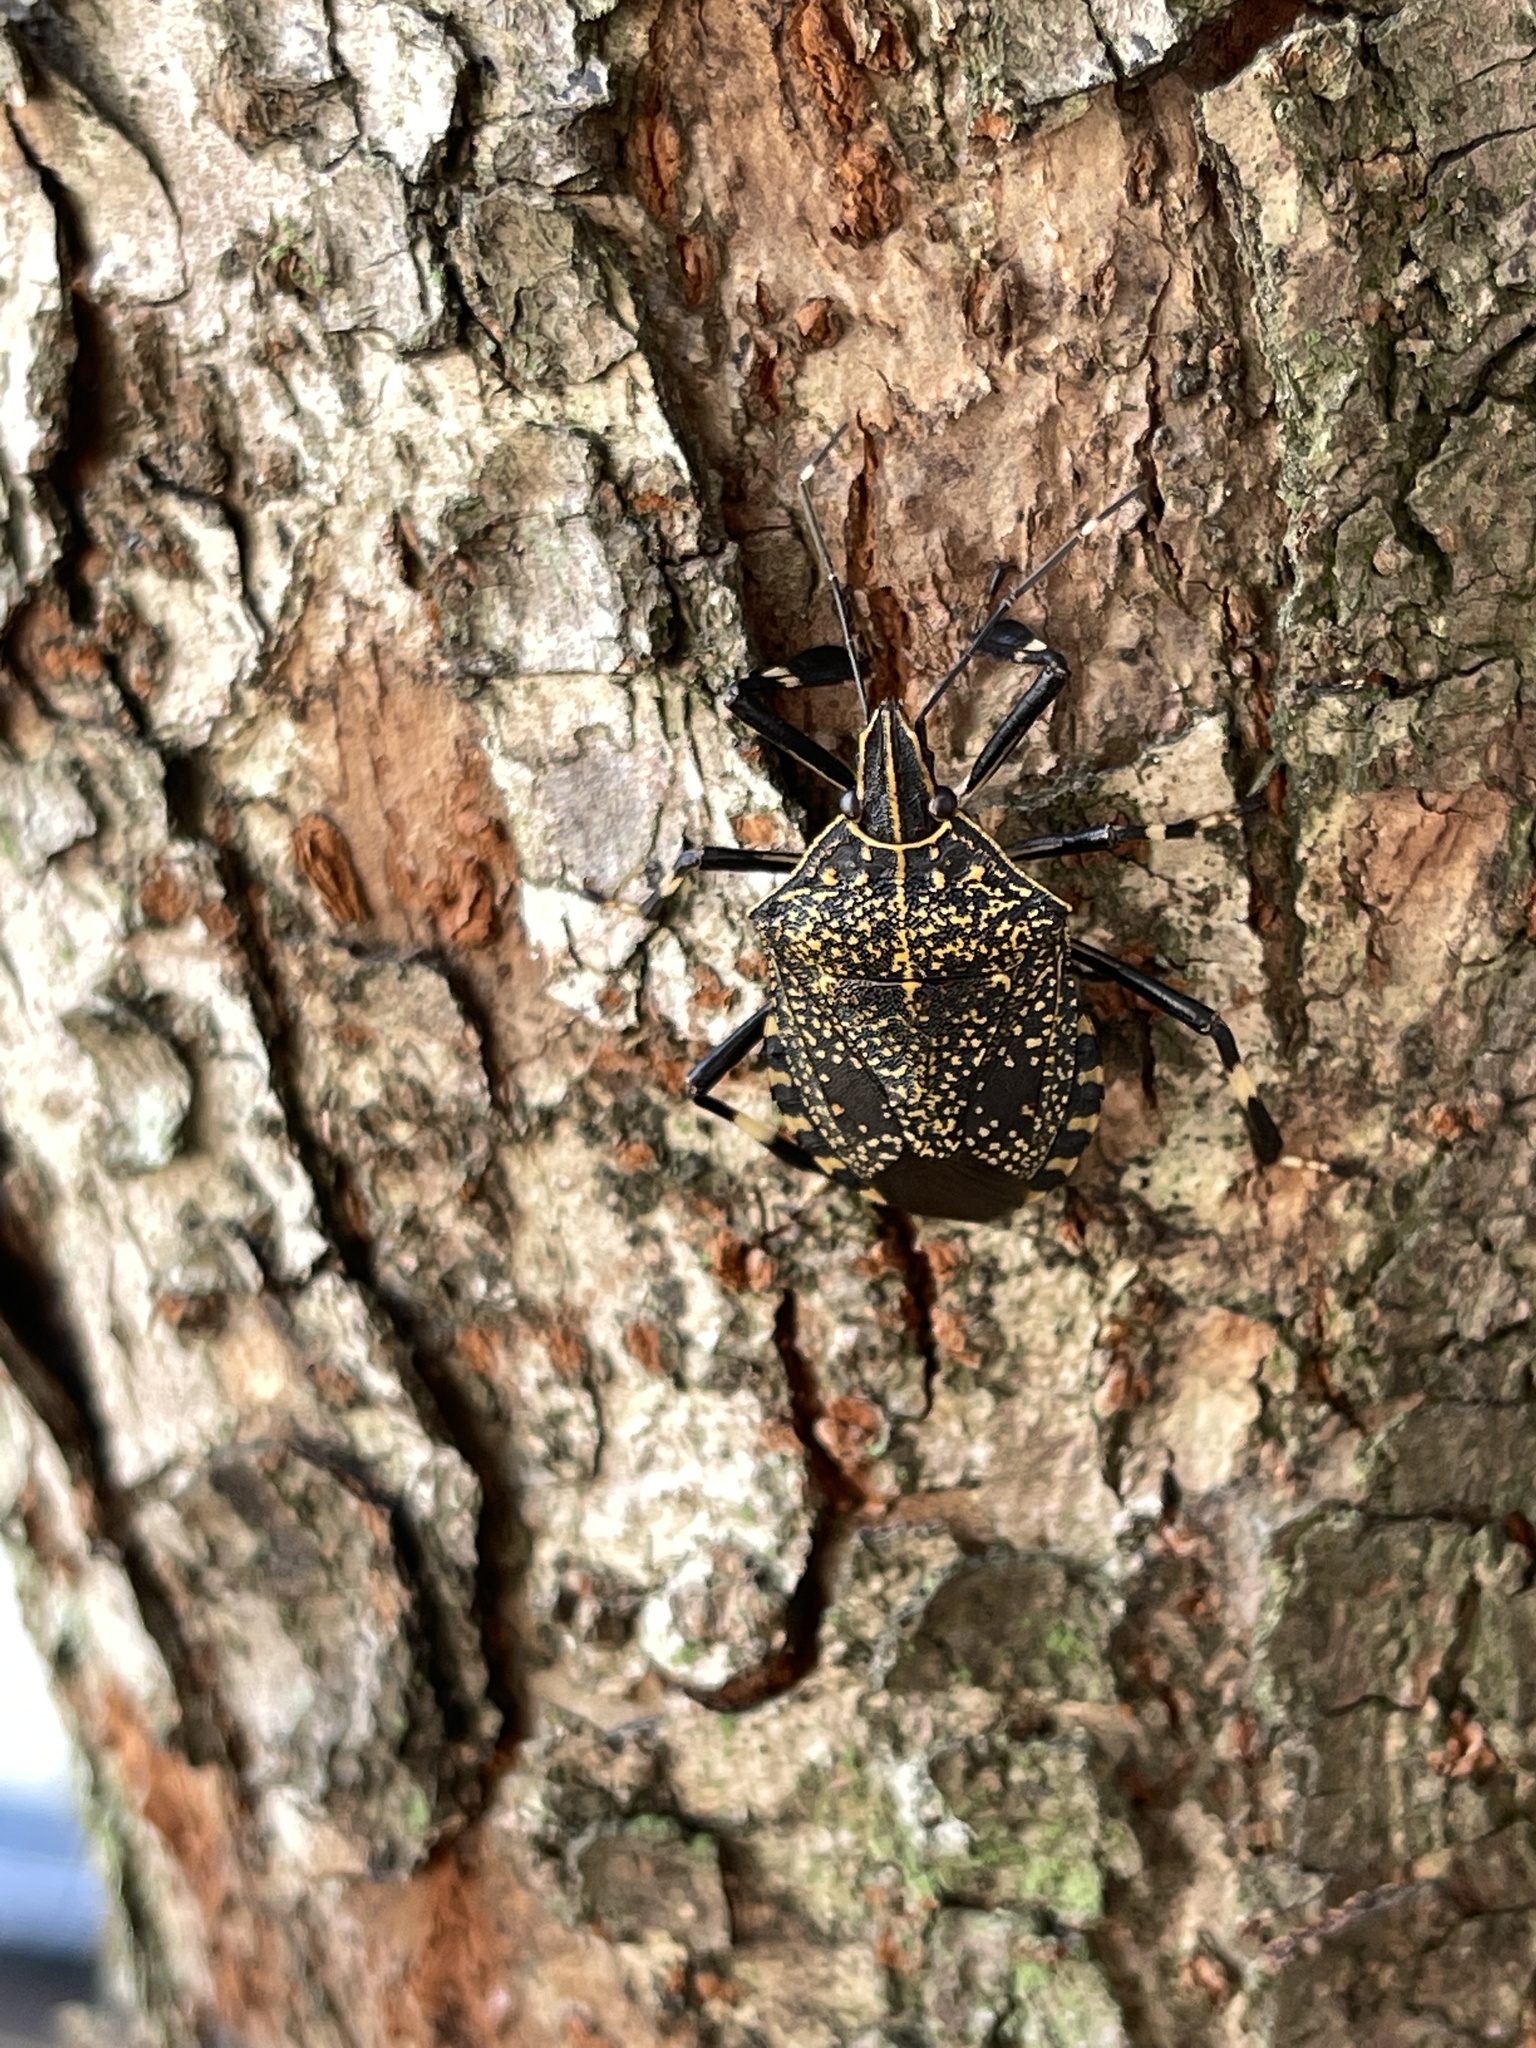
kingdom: Animalia
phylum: Arthropoda
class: Insecta
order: Hemiptera
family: Pentatomidae
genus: Erthesina
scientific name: Erthesina fullo
